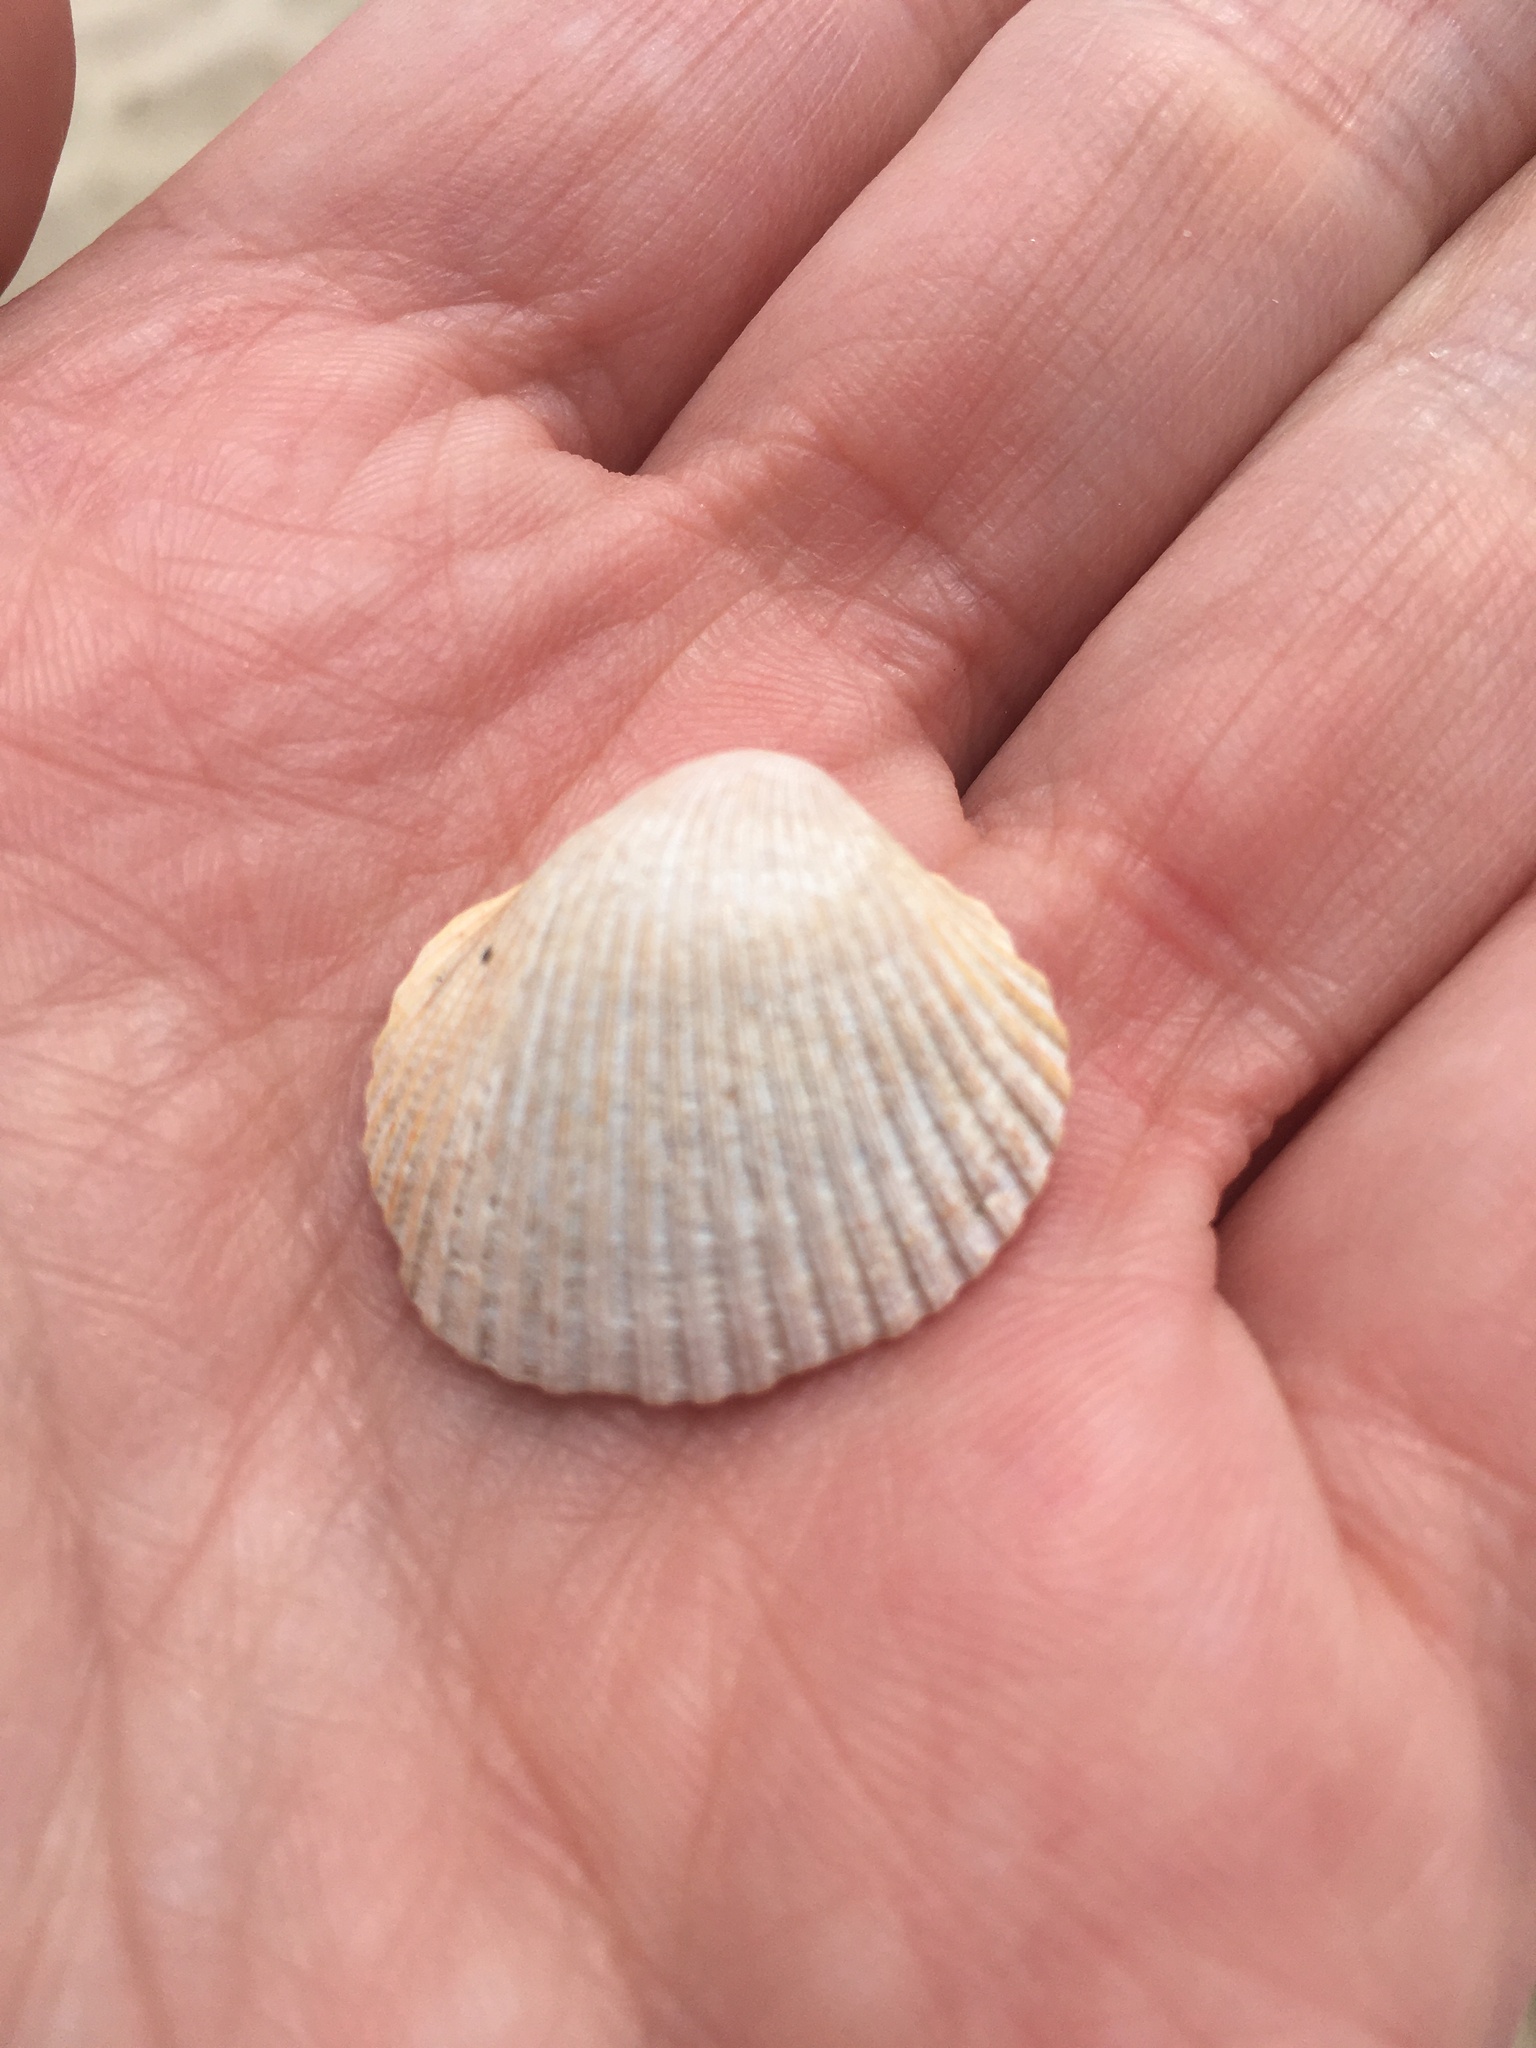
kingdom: Animalia
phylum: Mollusca
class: Bivalvia
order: Arcida
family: Arcidae
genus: Lunarca
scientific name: Lunarca ovalis
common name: Blood ark
